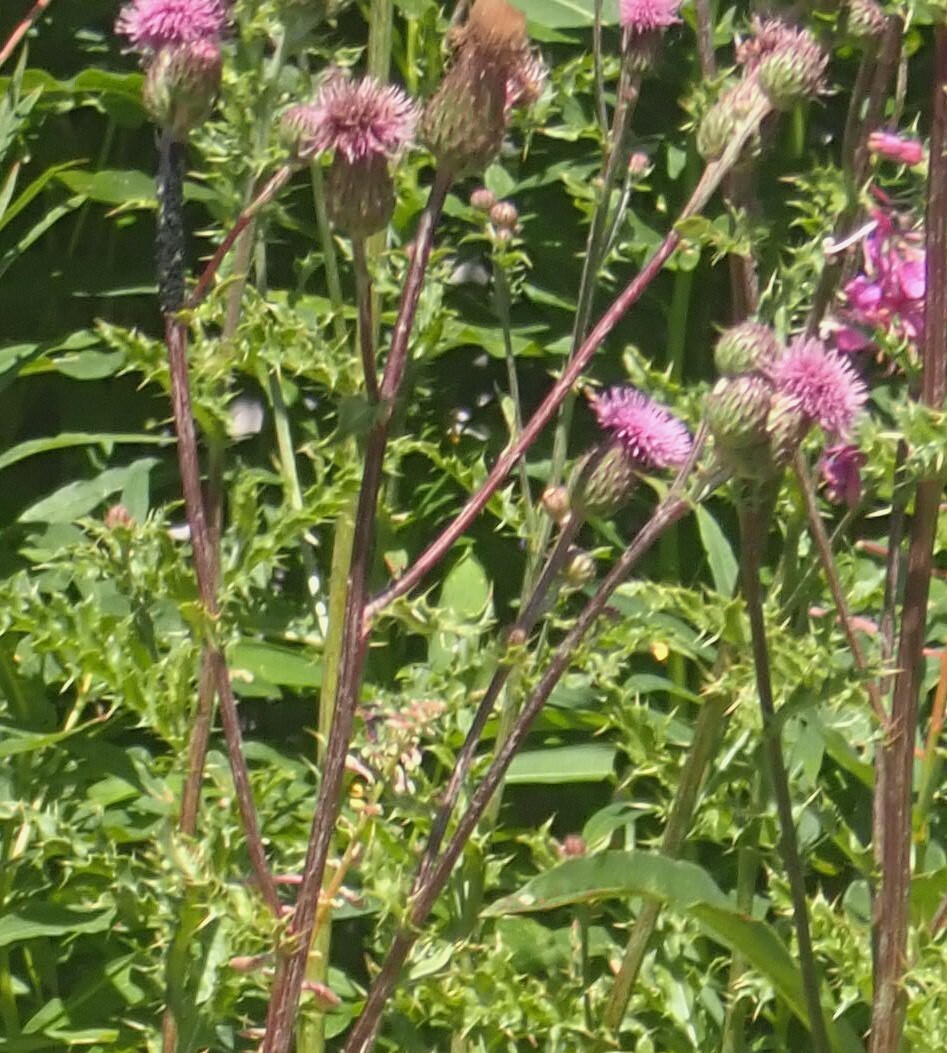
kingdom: Plantae
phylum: Tracheophyta
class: Magnoliopsida
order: Asterales
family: Asteraceae
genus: Cirsium
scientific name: Cirsium arvense
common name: Creeping thistle
